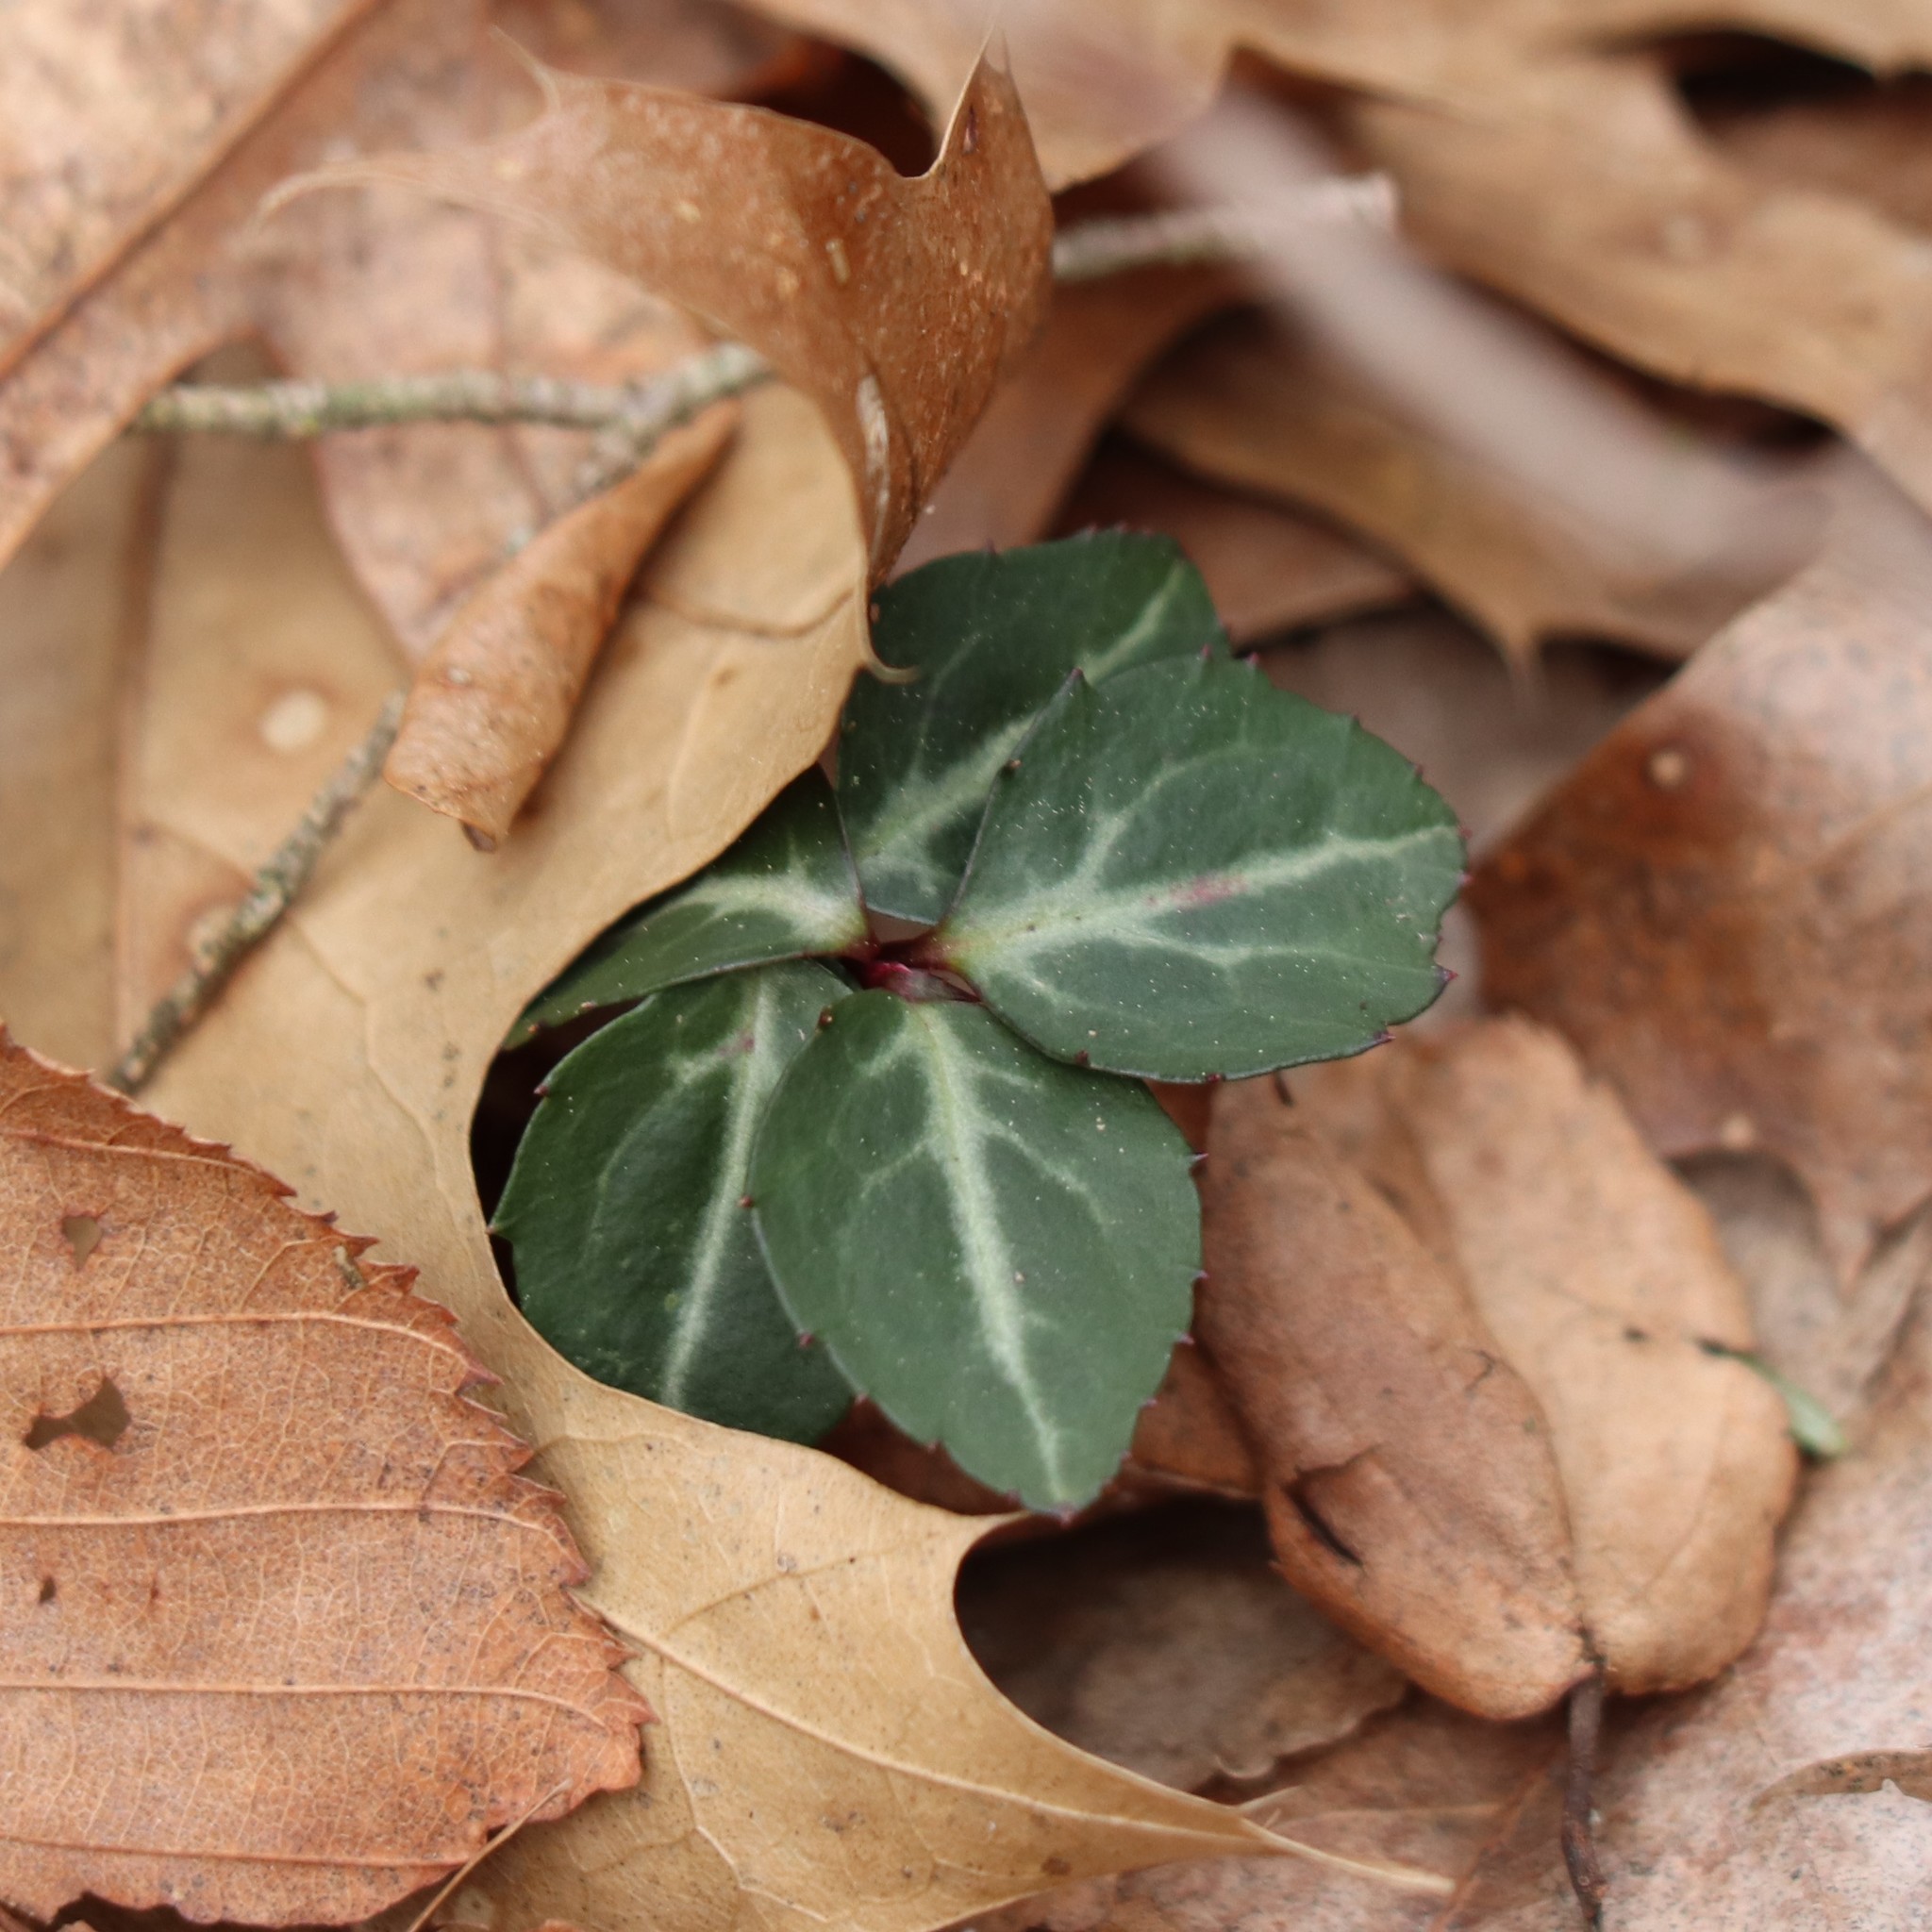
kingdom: Plantae
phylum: Tracheophyta
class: Magnoliopsida
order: Ericales
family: Ericaceae
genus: Chimaphila
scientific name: Chimaphila maculata
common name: Spotted pipsissewa
